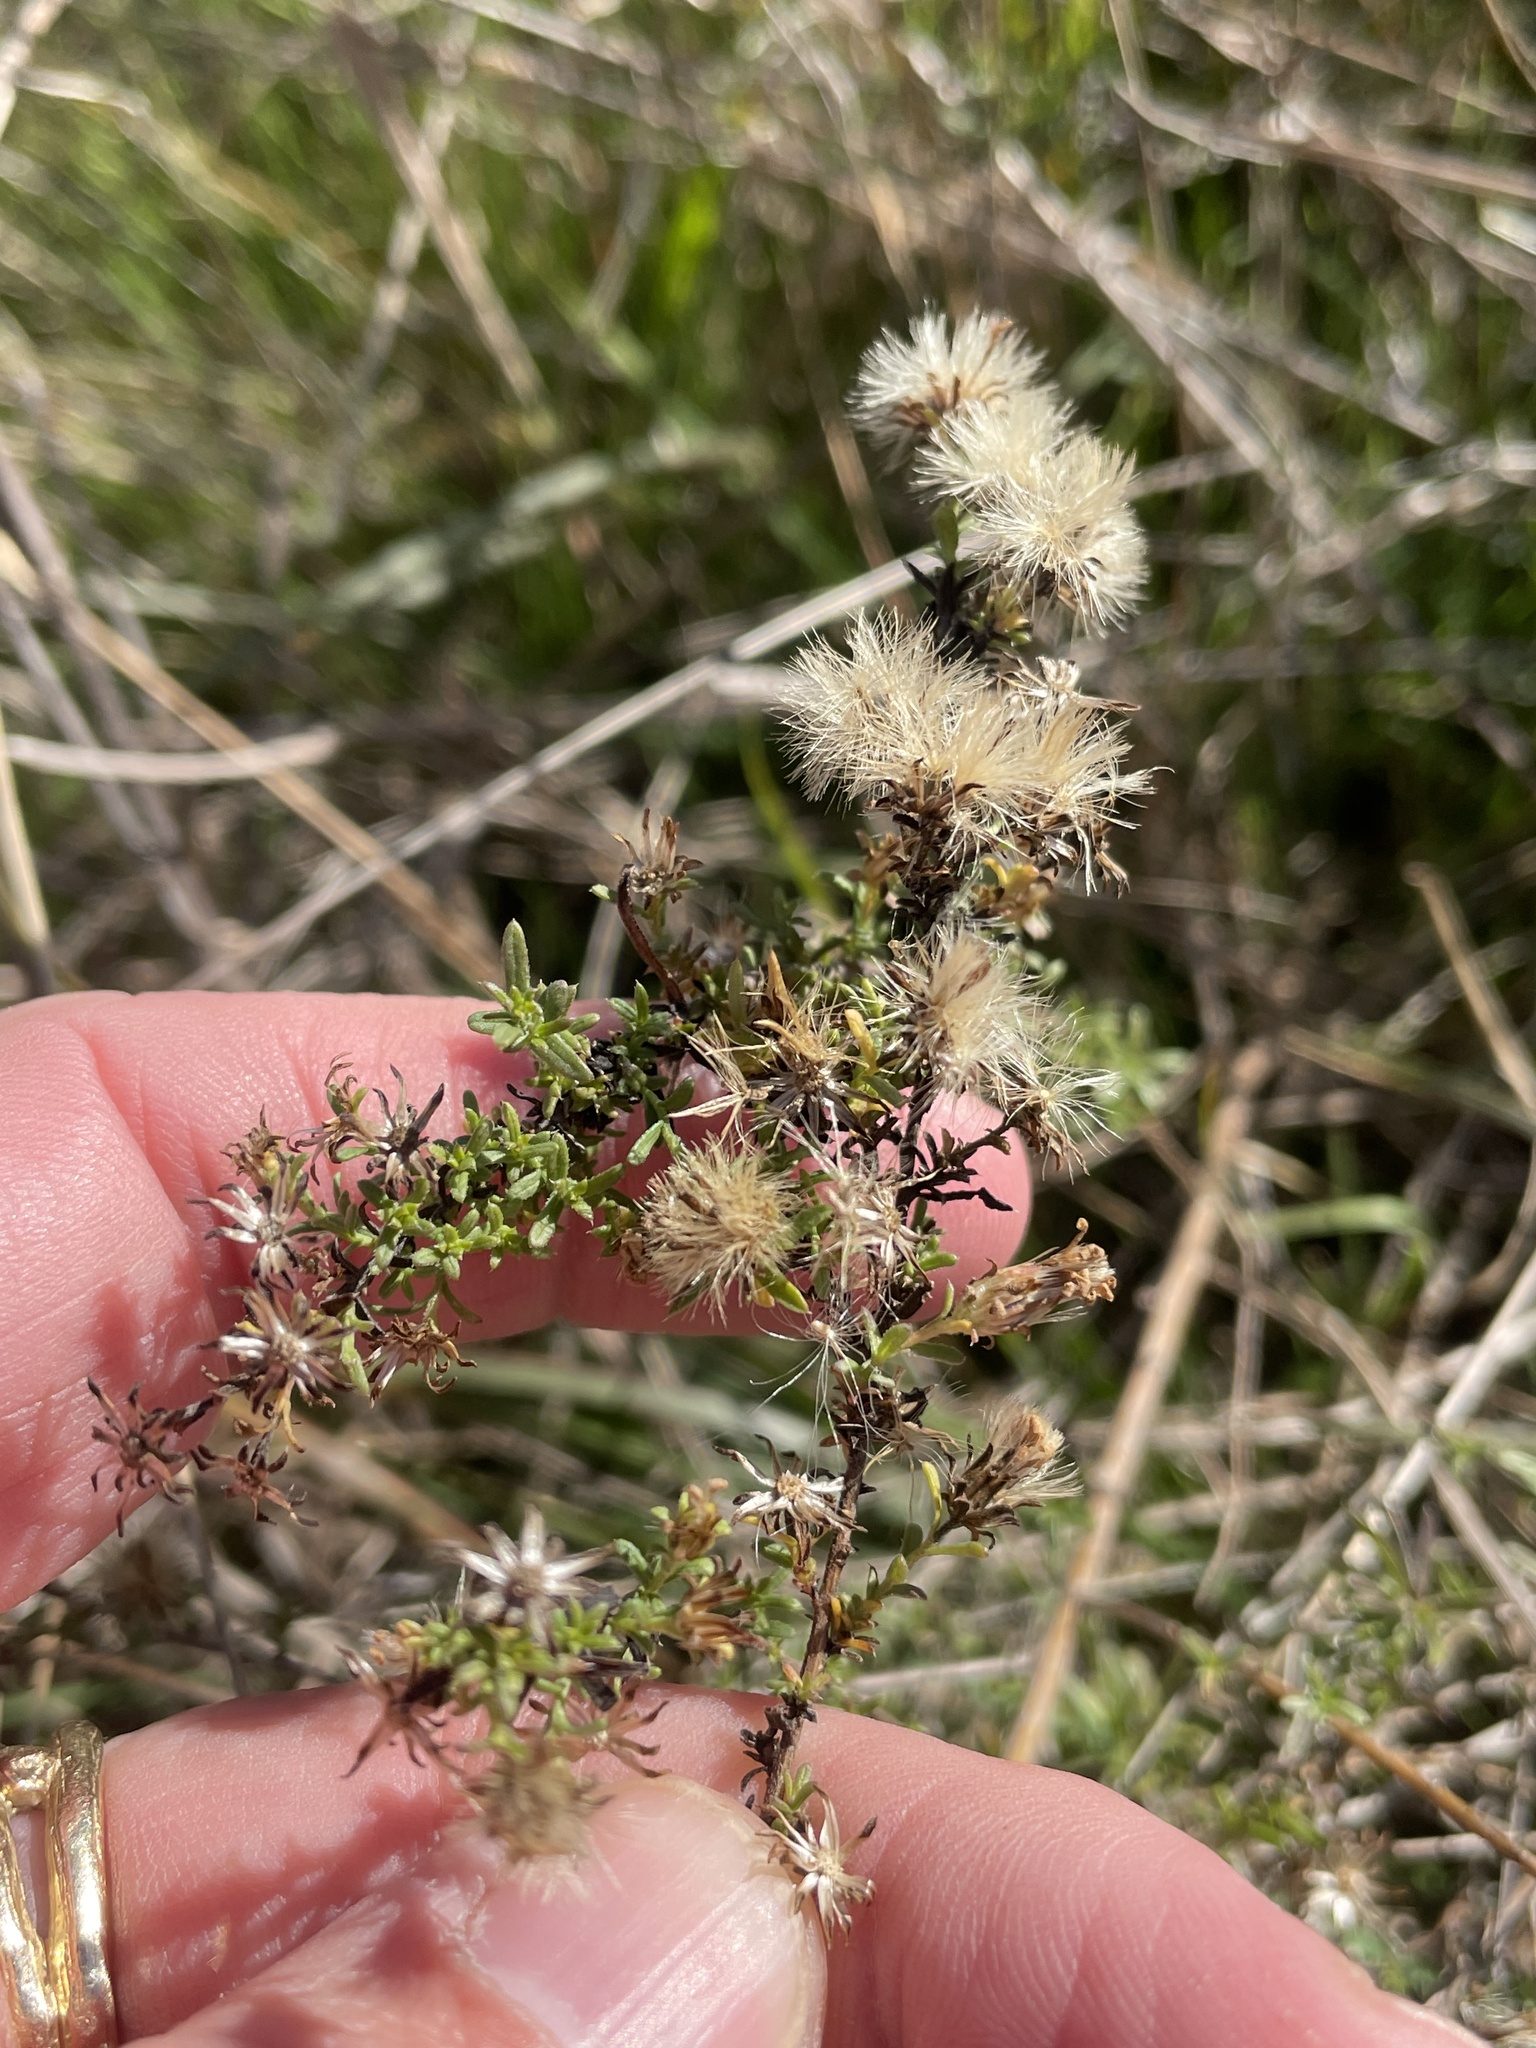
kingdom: Plantae
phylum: Tracheophyta
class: Magnoliopsida
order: Asterales
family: Asteraceae
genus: Symphyotrichum
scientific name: Symphyotrichum ericoides
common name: Heath aster
